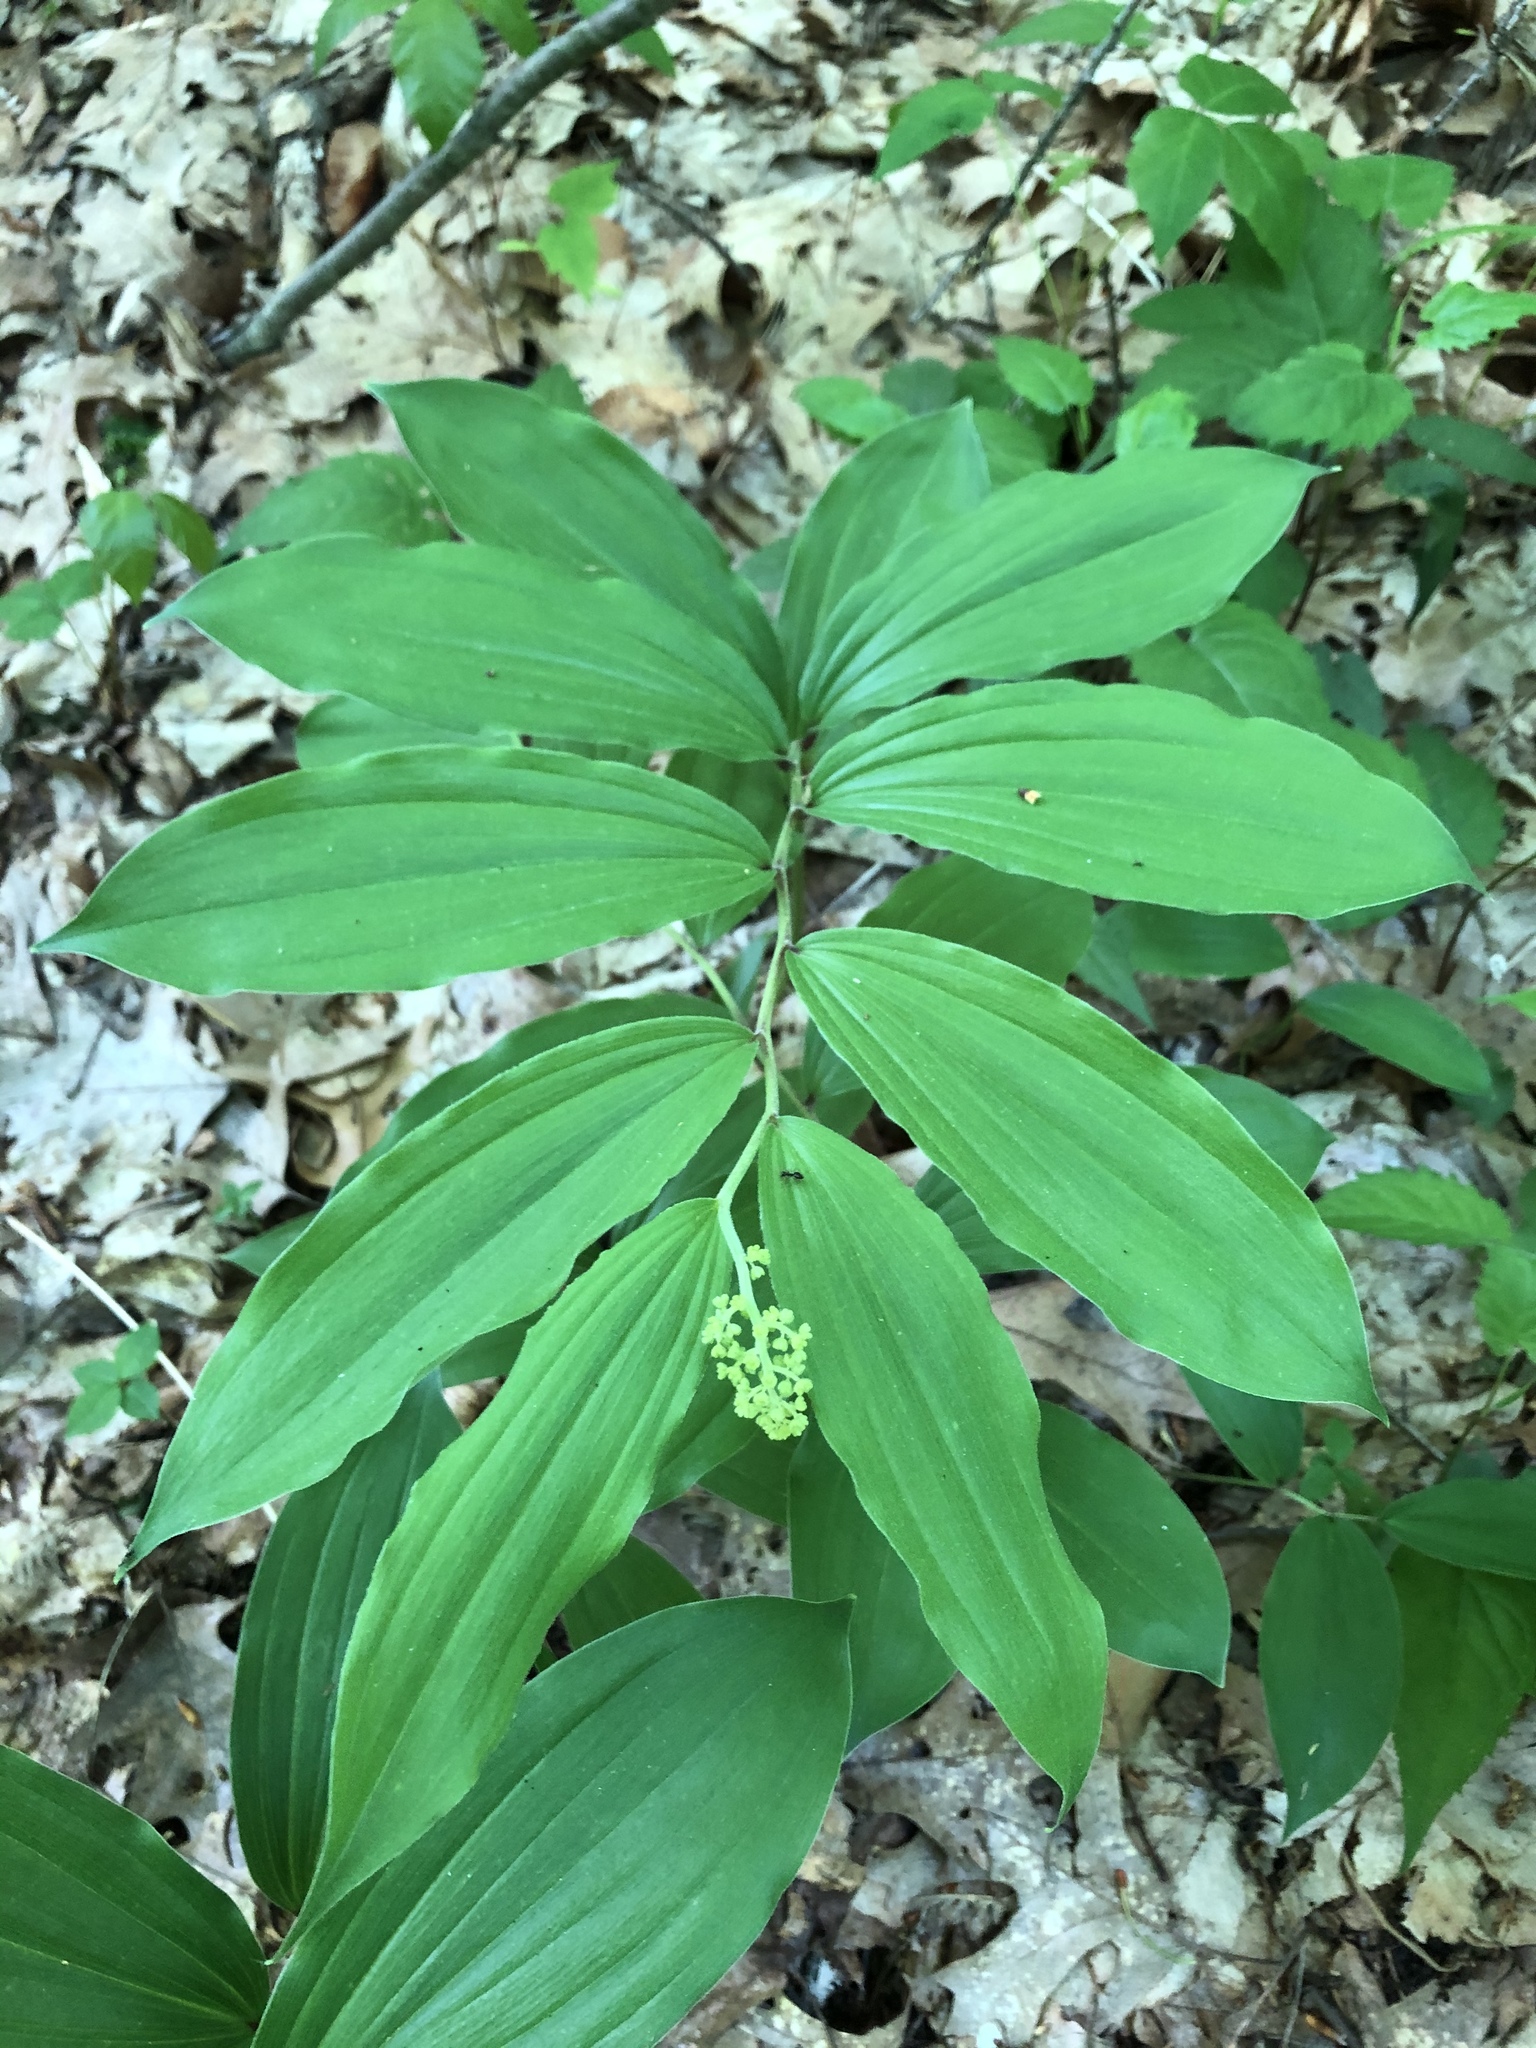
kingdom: Plantae
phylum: Tracheophyta
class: Liliopsida
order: Asparagales
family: Asparagaceae
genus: Maianthemum
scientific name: Maianthemum racemosum
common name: False spikenard
